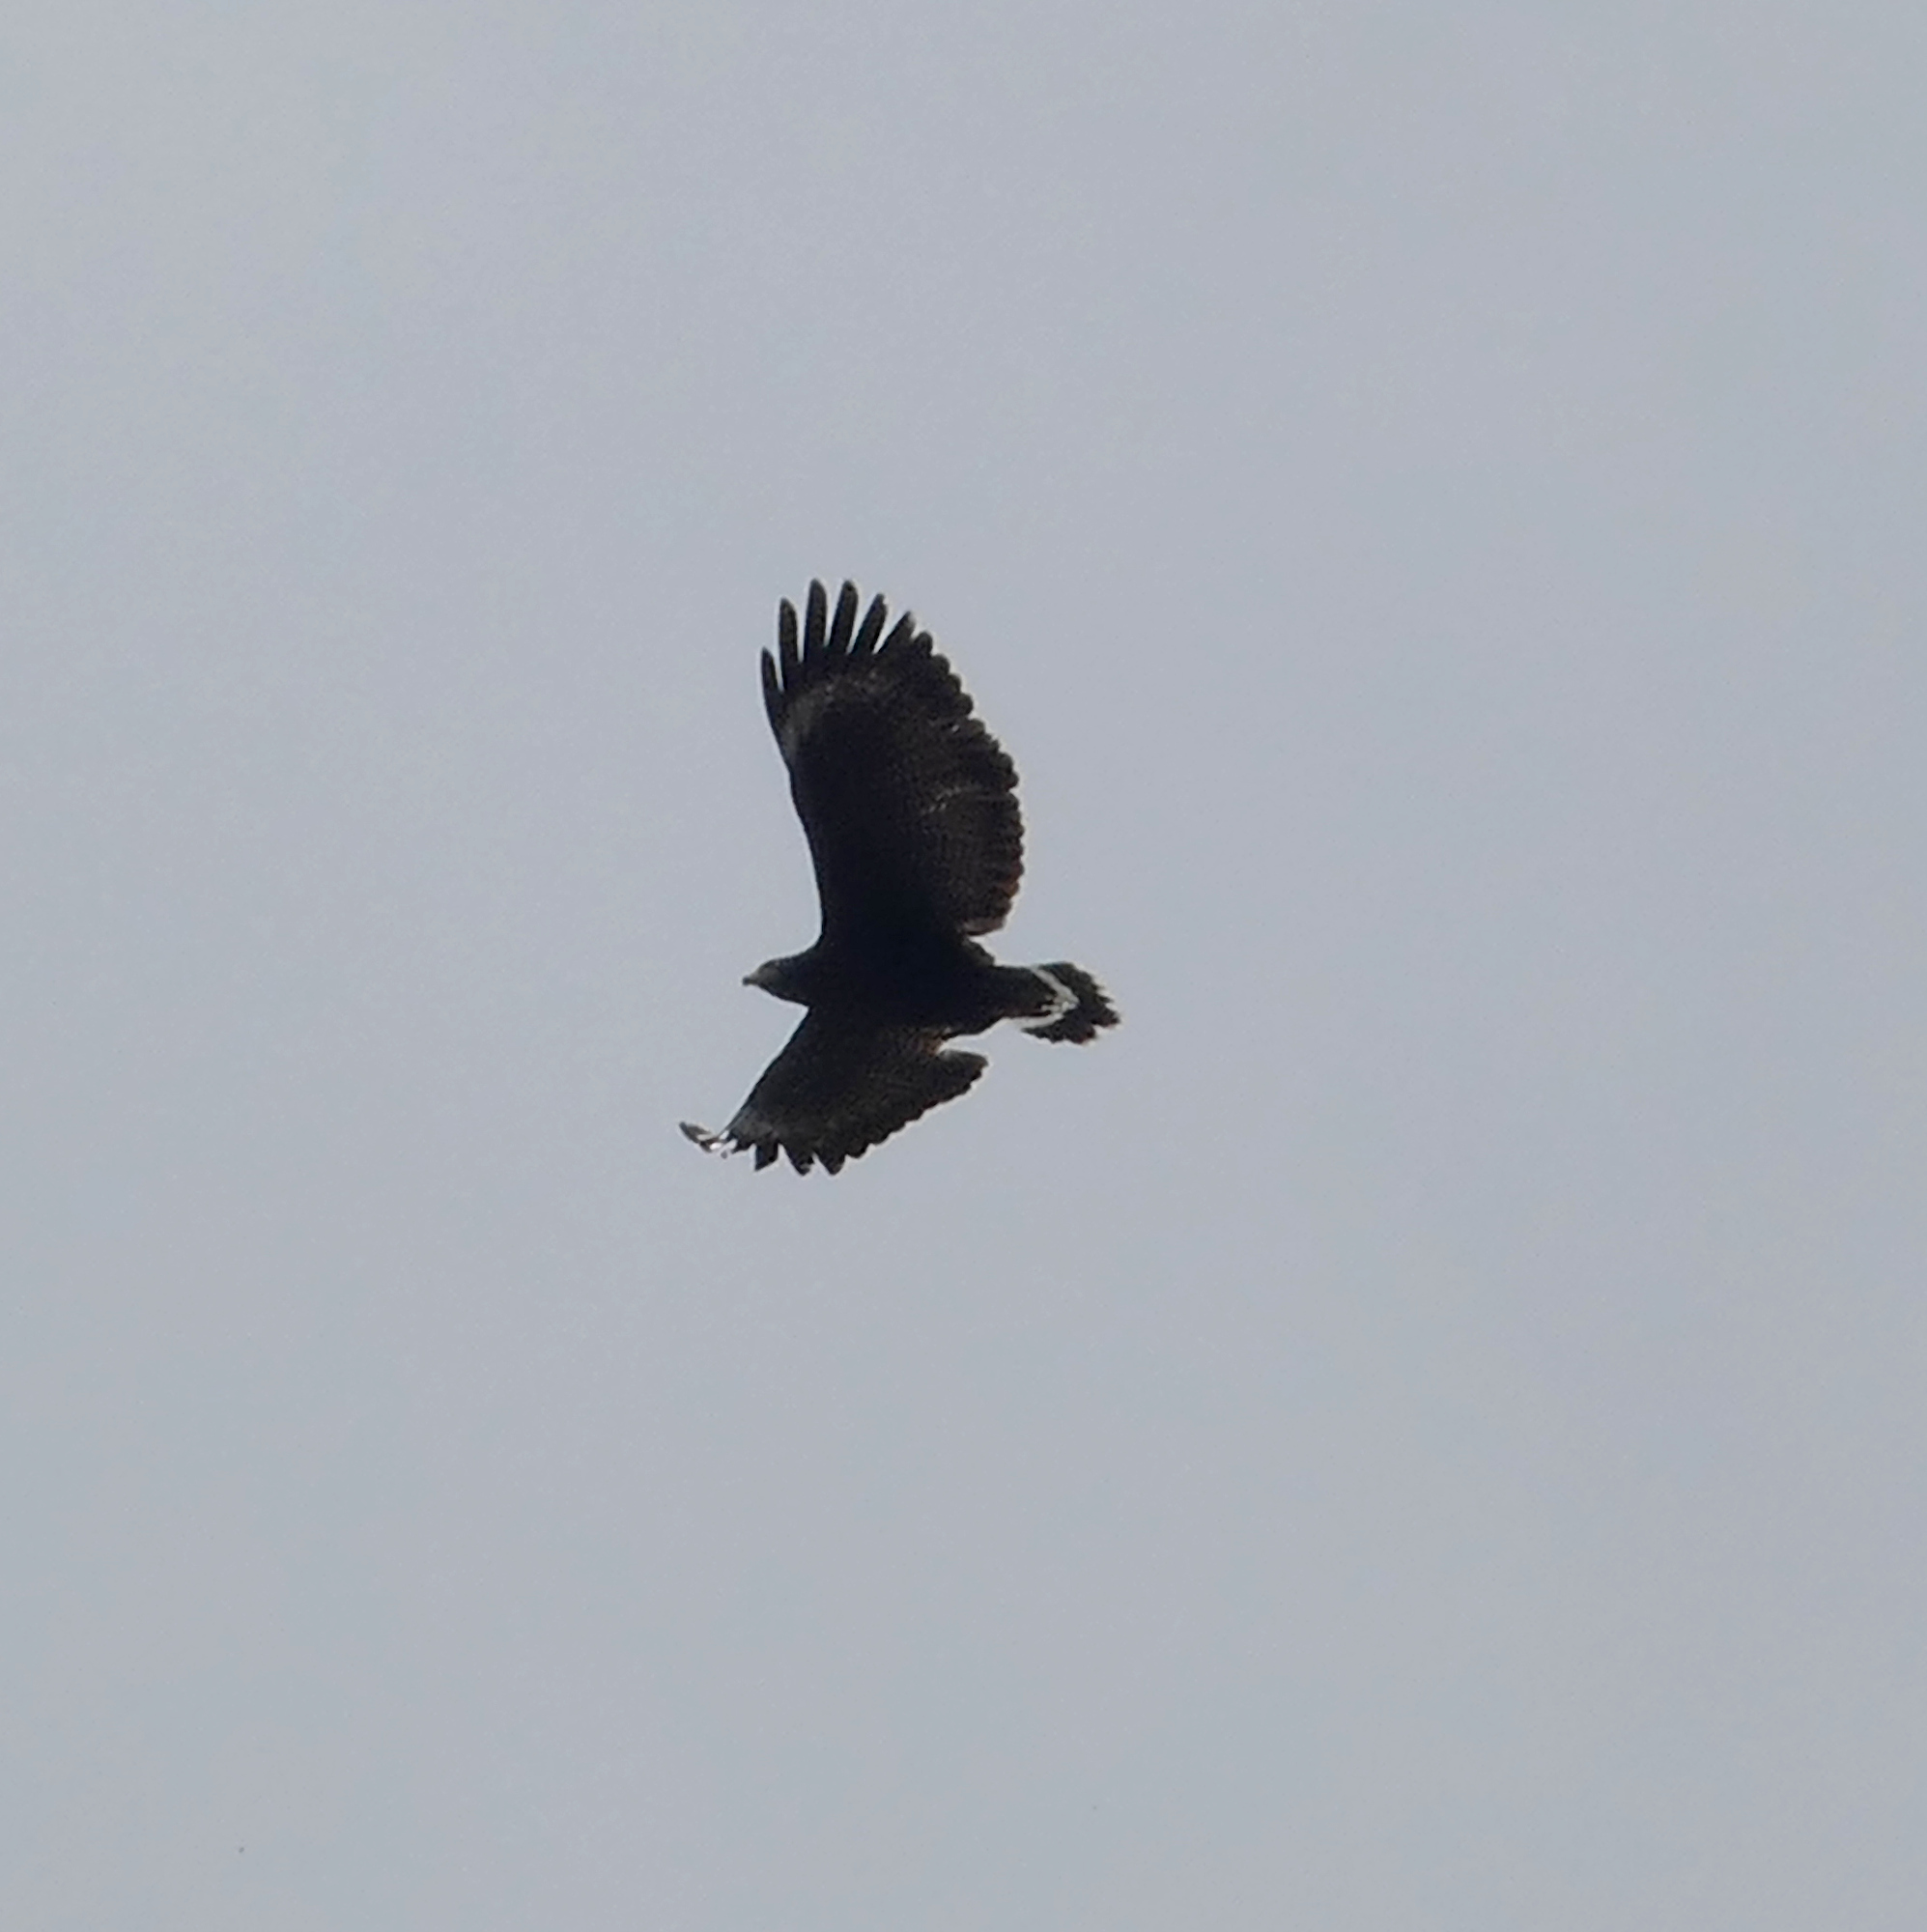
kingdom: Animalia
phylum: Chordata
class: Aves
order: Accipitriformes
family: Accipitridae
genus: Buteogallus
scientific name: Buteogallus anthracinus
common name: Common black hawk
